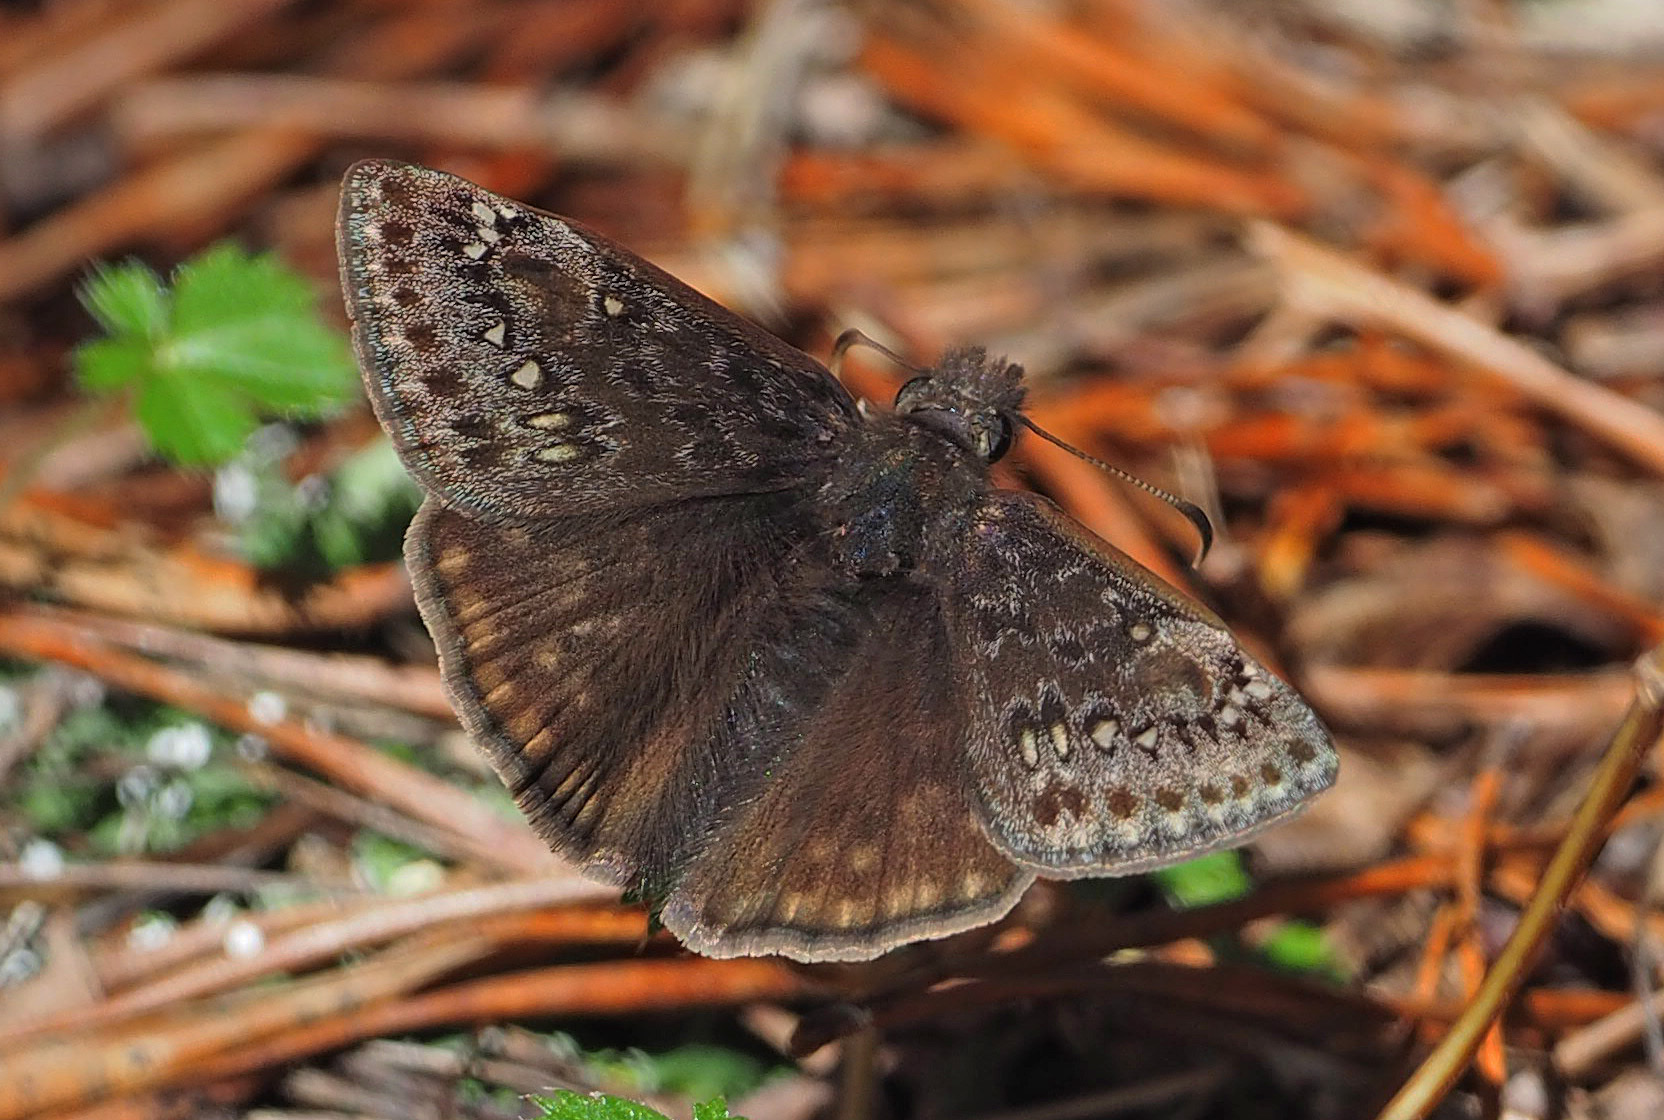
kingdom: Animalia
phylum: Arthropoda
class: Insecta
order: Lepidoptera
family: Hesperiidae
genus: Erynnis
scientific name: Erynnis juvenalis
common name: Juvenal's duskywing
